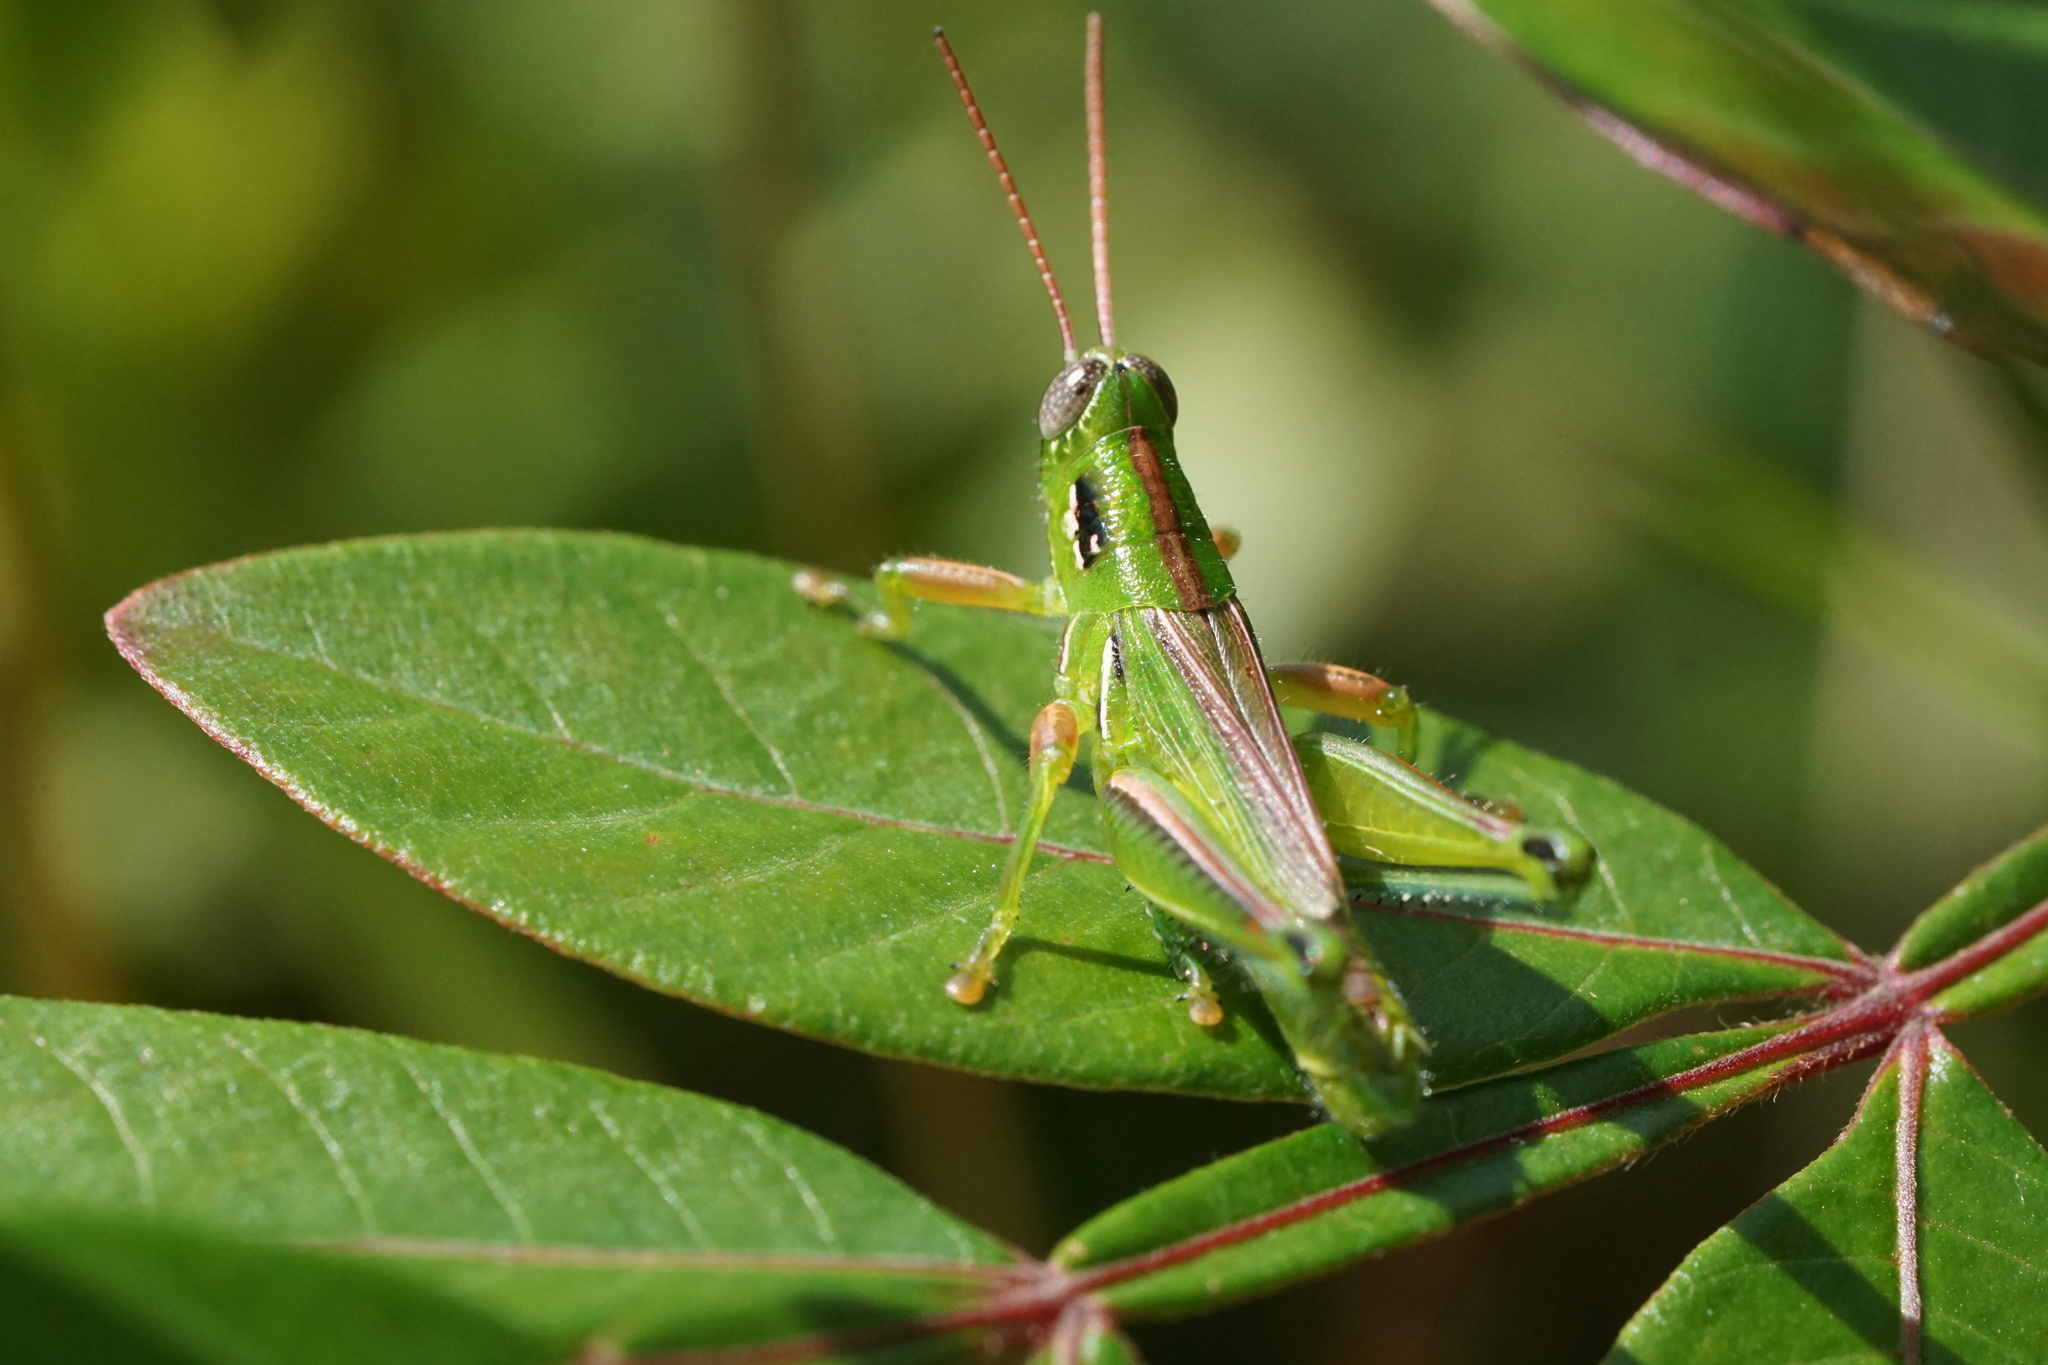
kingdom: Animalia
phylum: Arthropoda
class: Insecta
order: Orthoptera
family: Acrididae
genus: Hesperotettix
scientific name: Hesperotettix viridis
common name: Meadow purple-striped grasshopper
